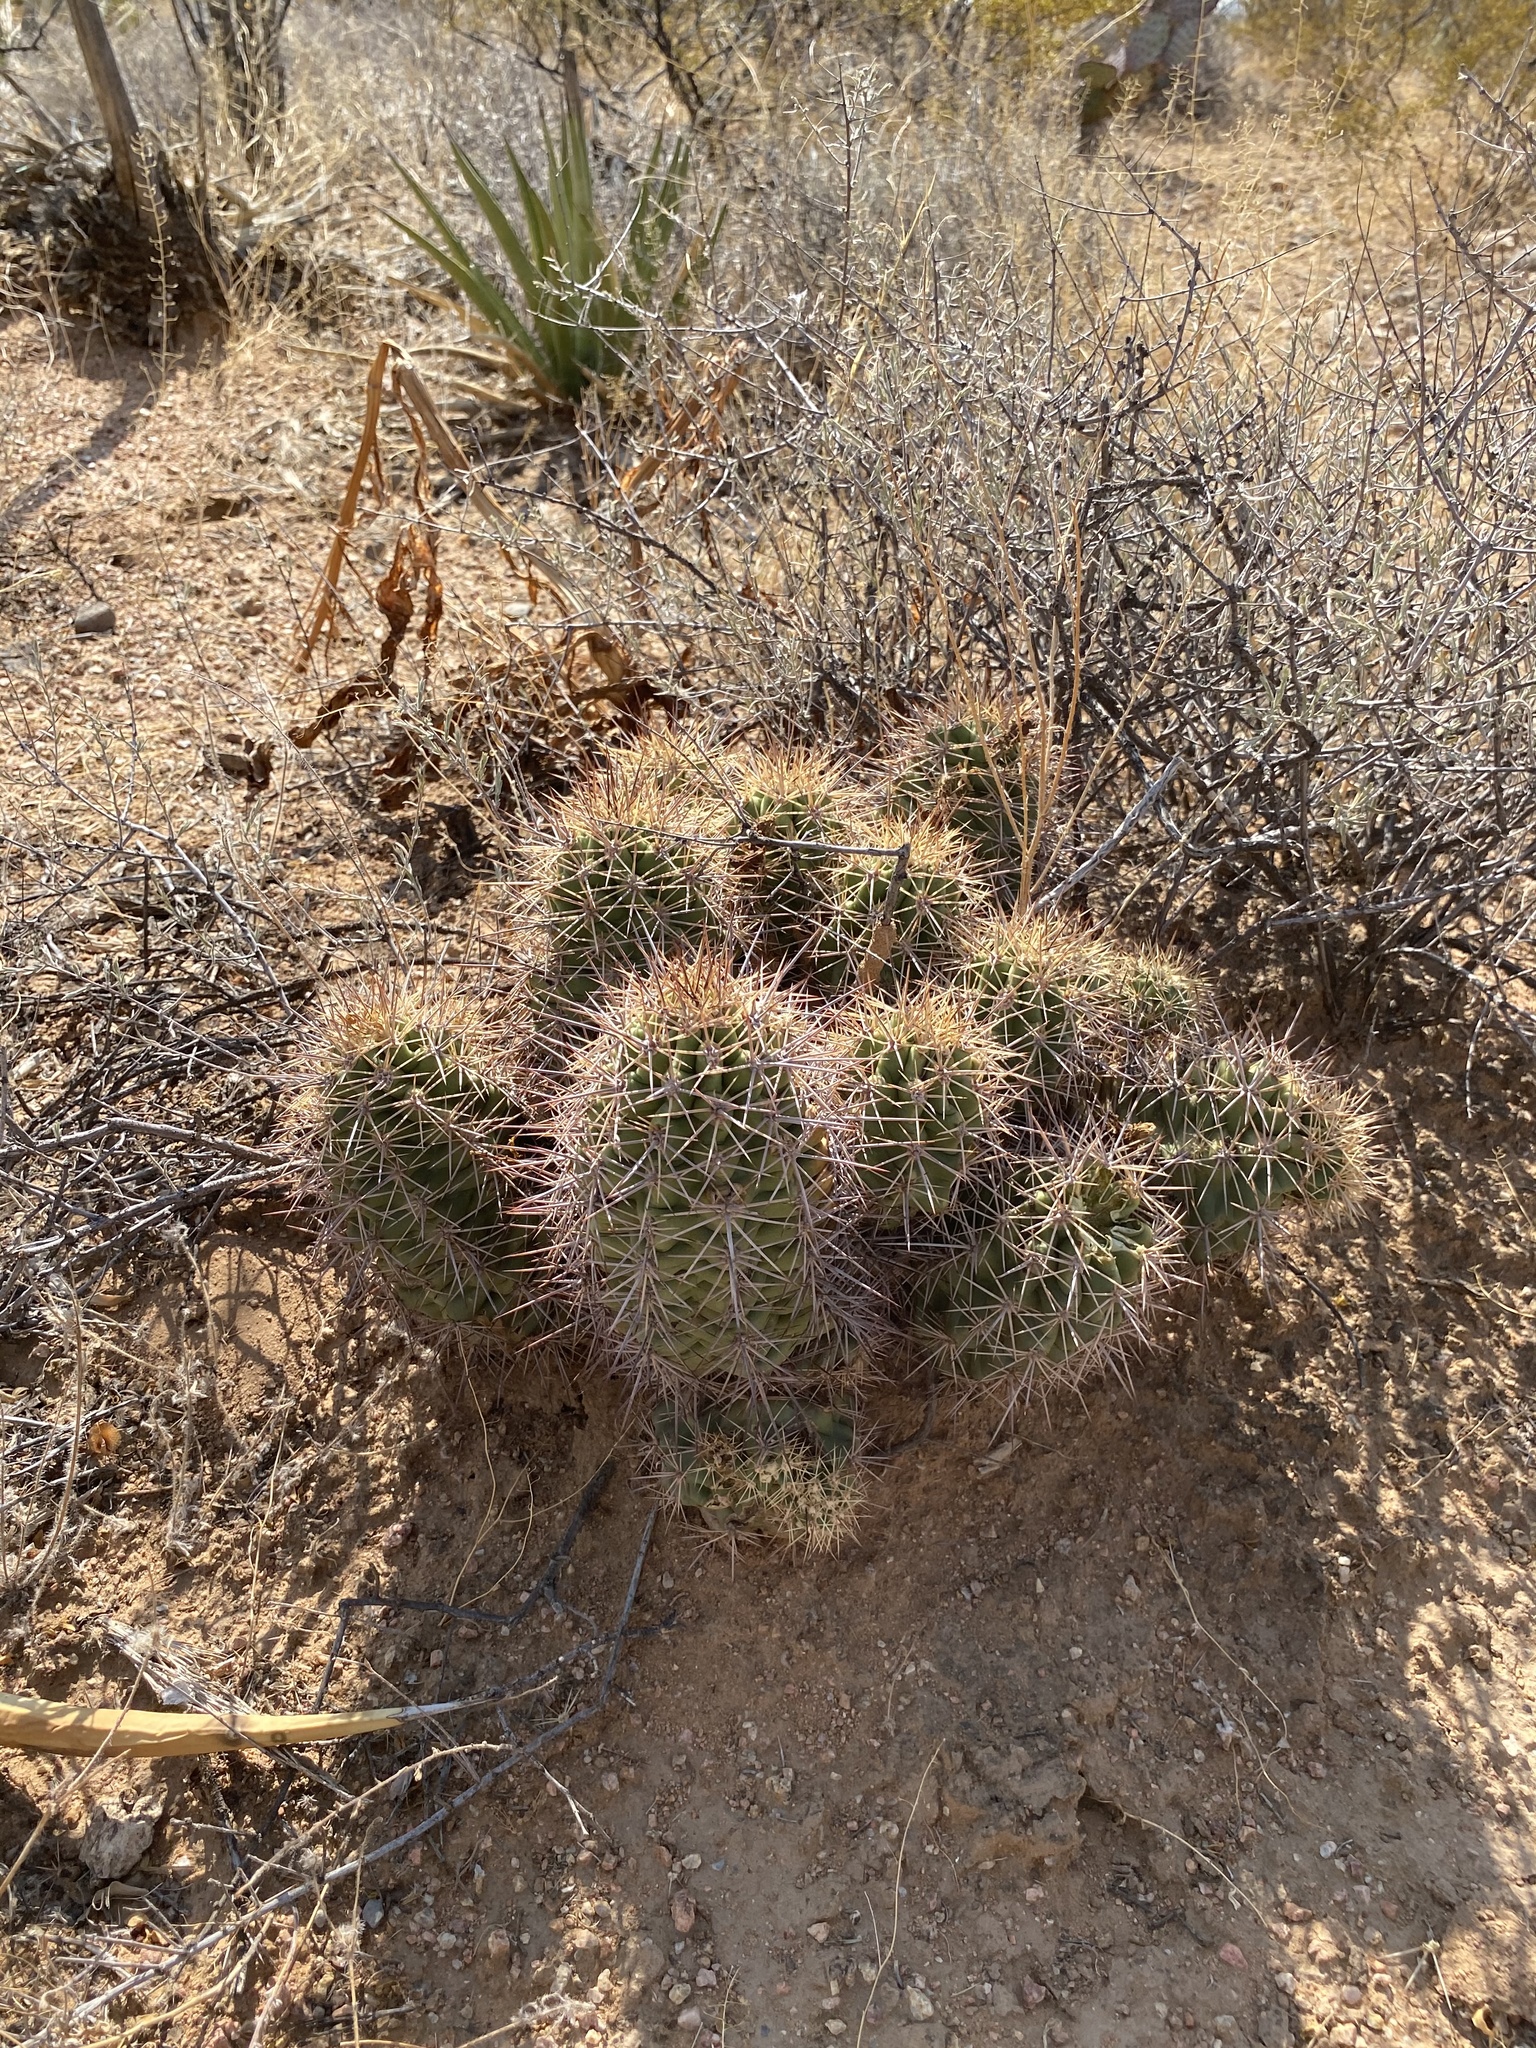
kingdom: Plantae
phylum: Tracheophyta
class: Magnoliopsida
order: Caryophyllales
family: Cactaceae
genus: Echinocereus
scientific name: Echinocereus coccineus
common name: Scarlet hedgehog cactus
